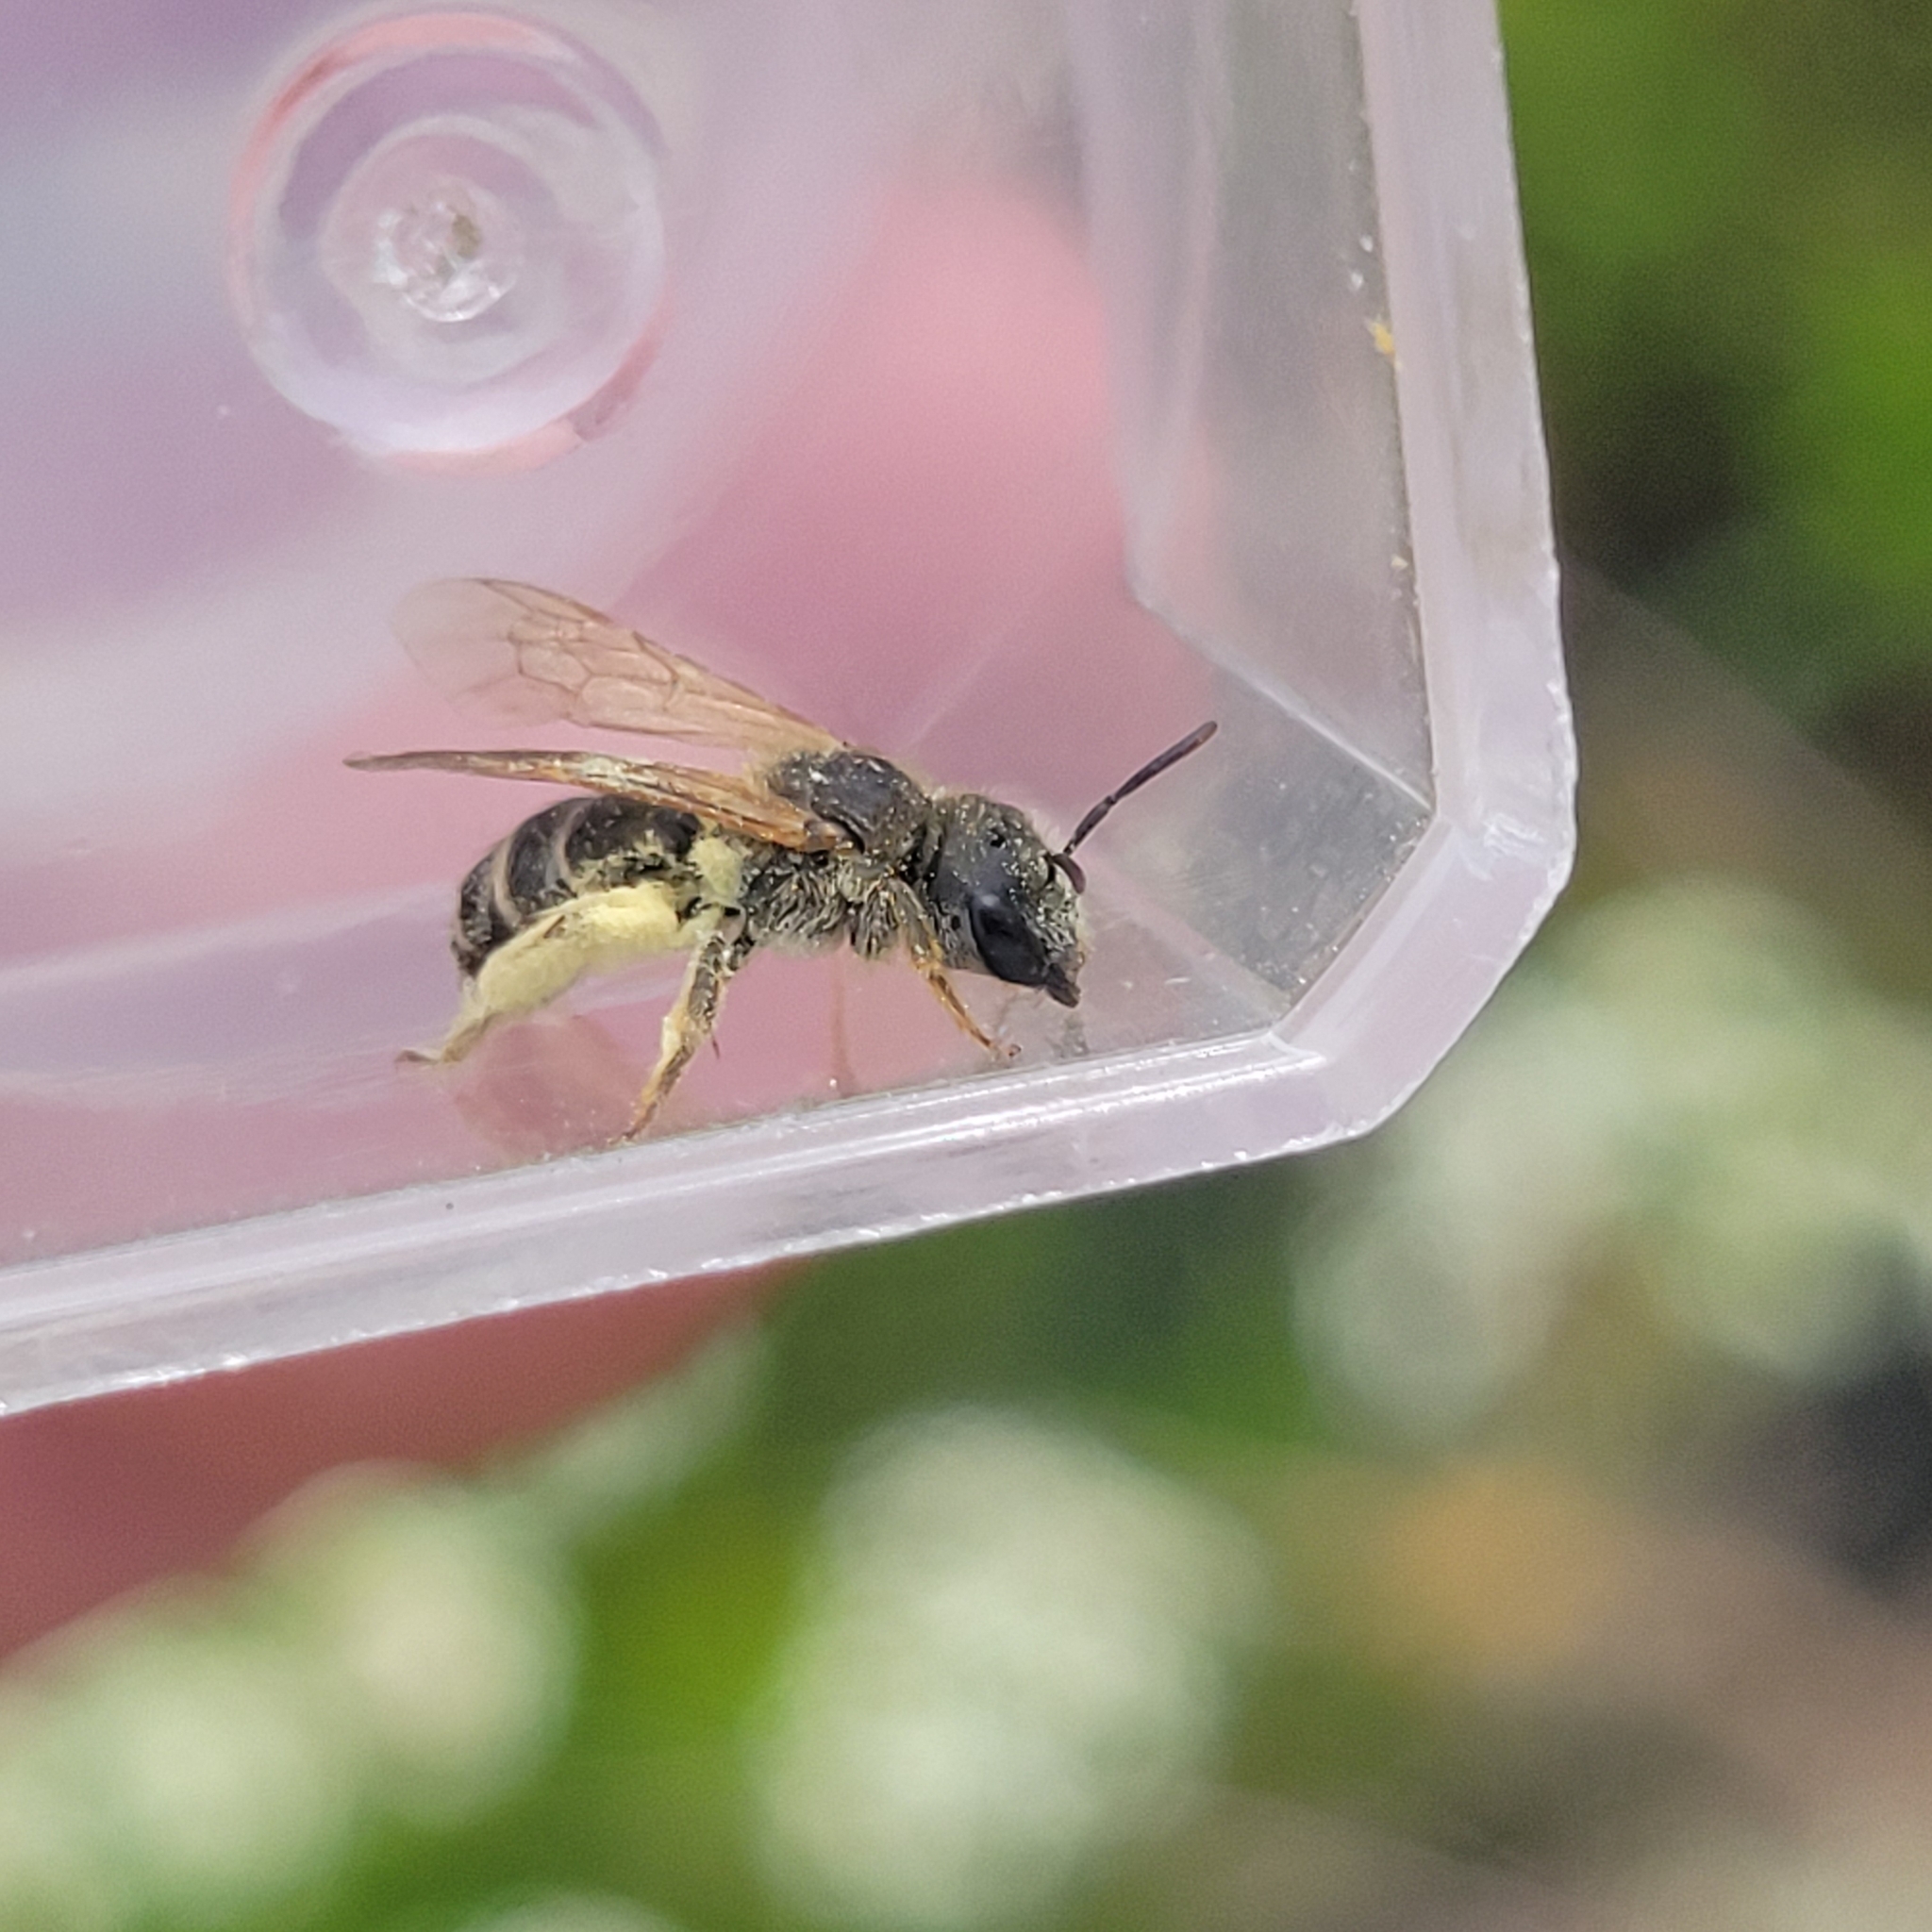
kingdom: Animalia
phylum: Arthropoda
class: Insecta
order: Hymenoptera
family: Halictidae
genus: Halictus
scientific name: Halictus ligatus
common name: Ligated furrow bee
